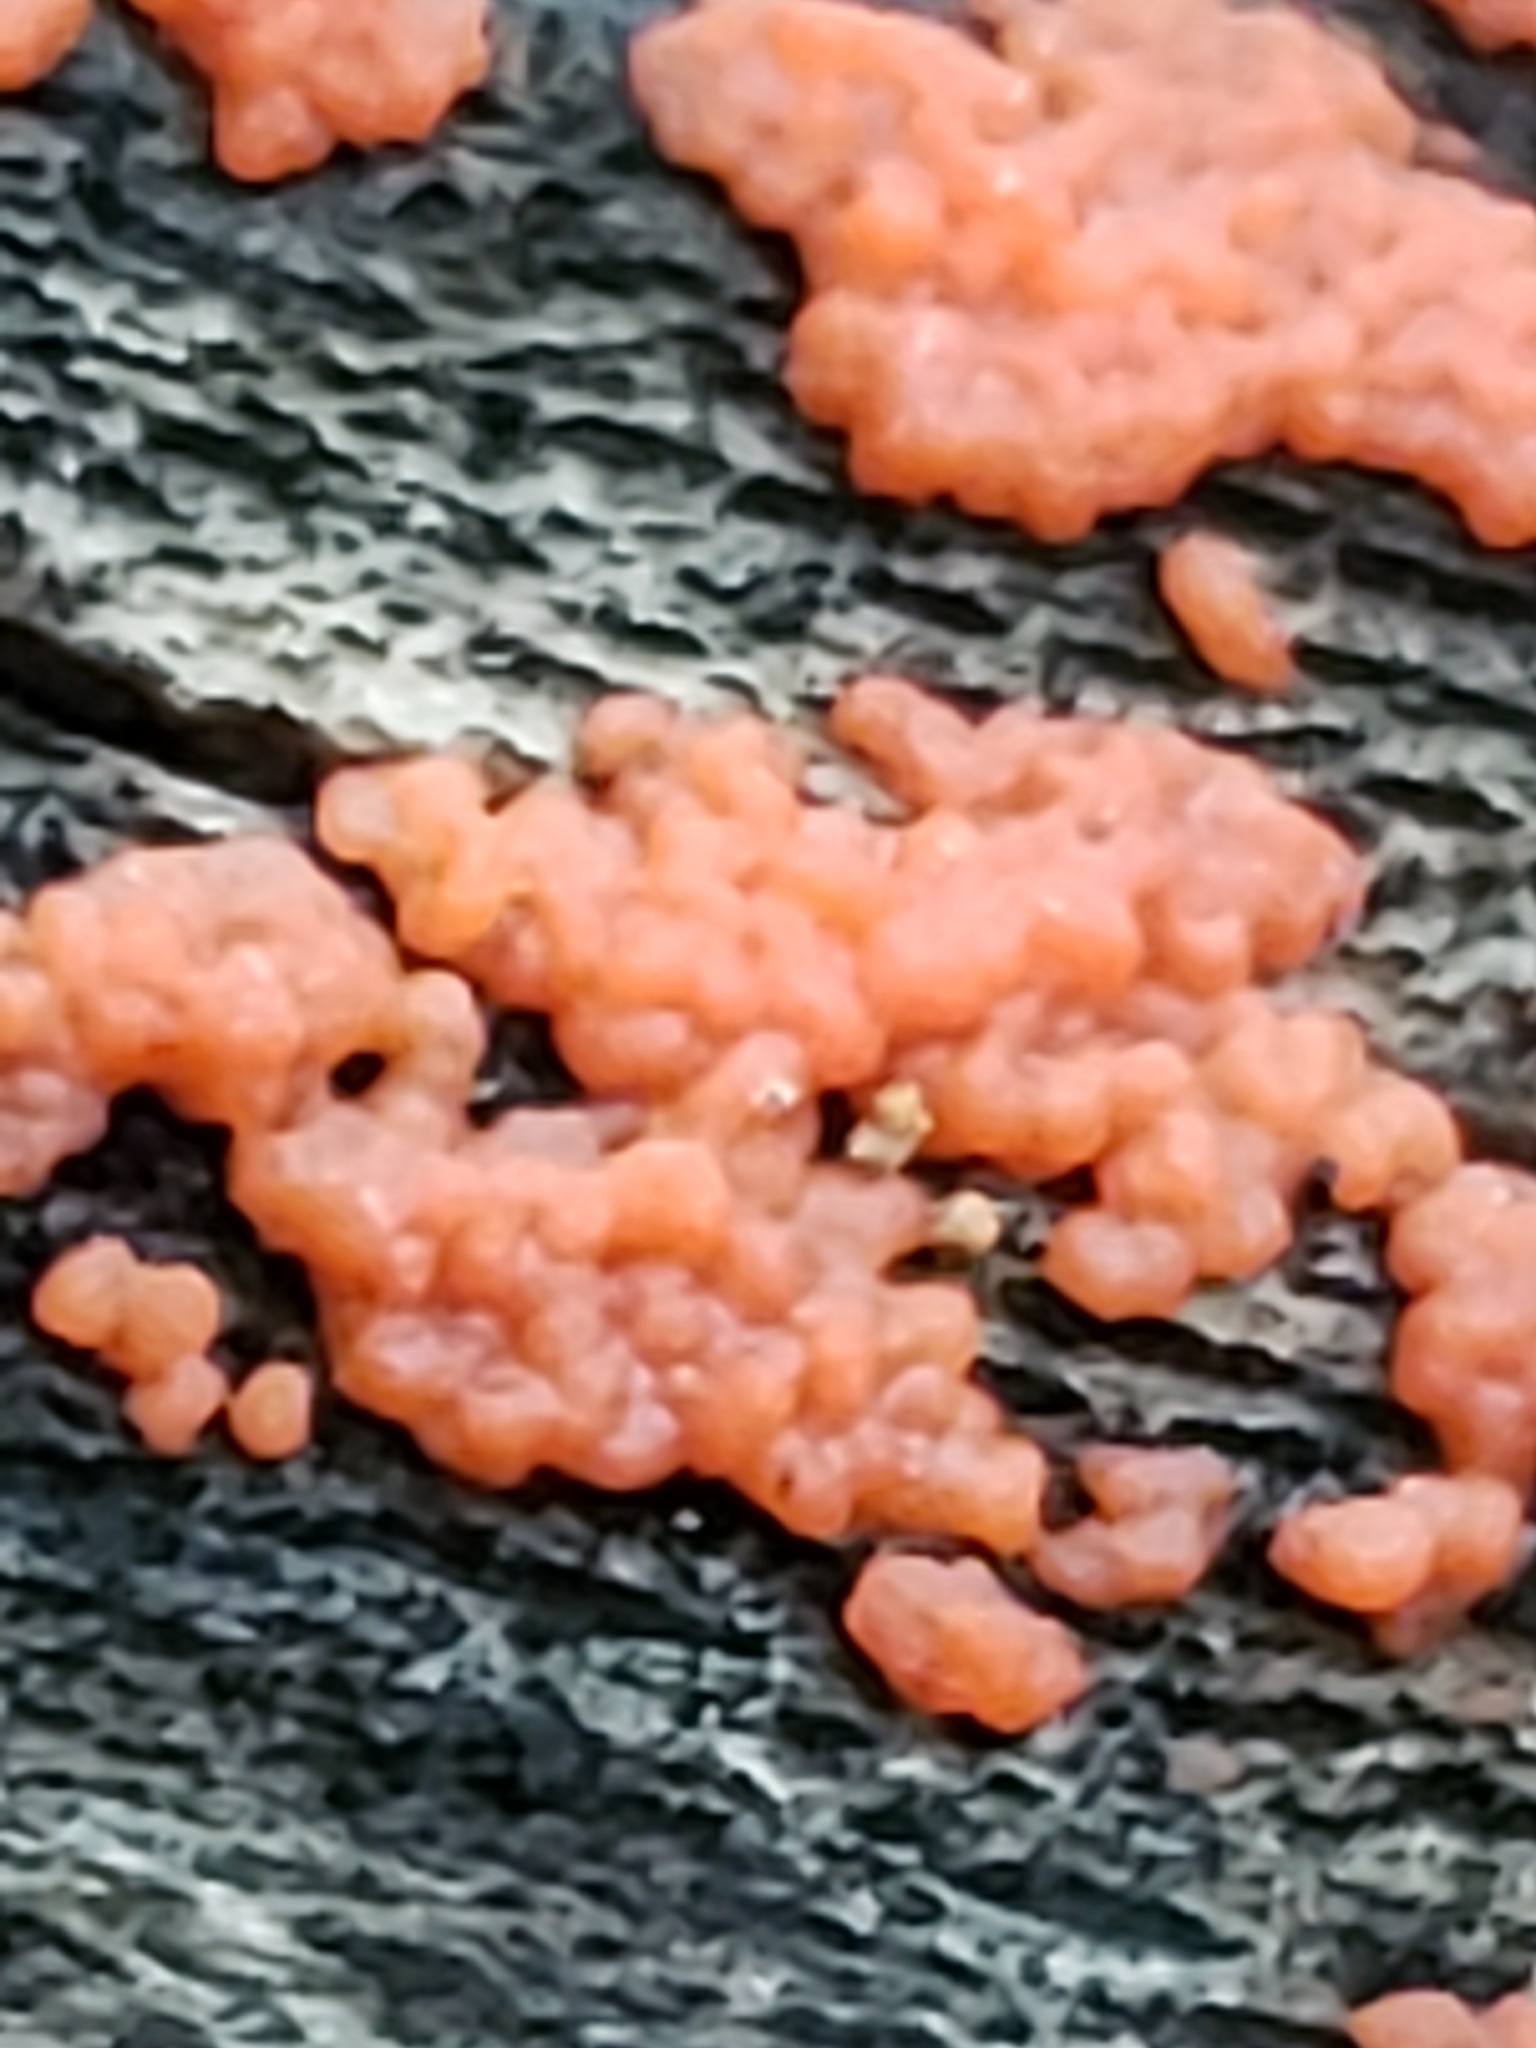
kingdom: Fungi
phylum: Basidiomycota
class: Agaricomycetes
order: Cantharellales
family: Tulasnellaceae
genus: Tulasnella
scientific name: Tulasnella aurantiaca
